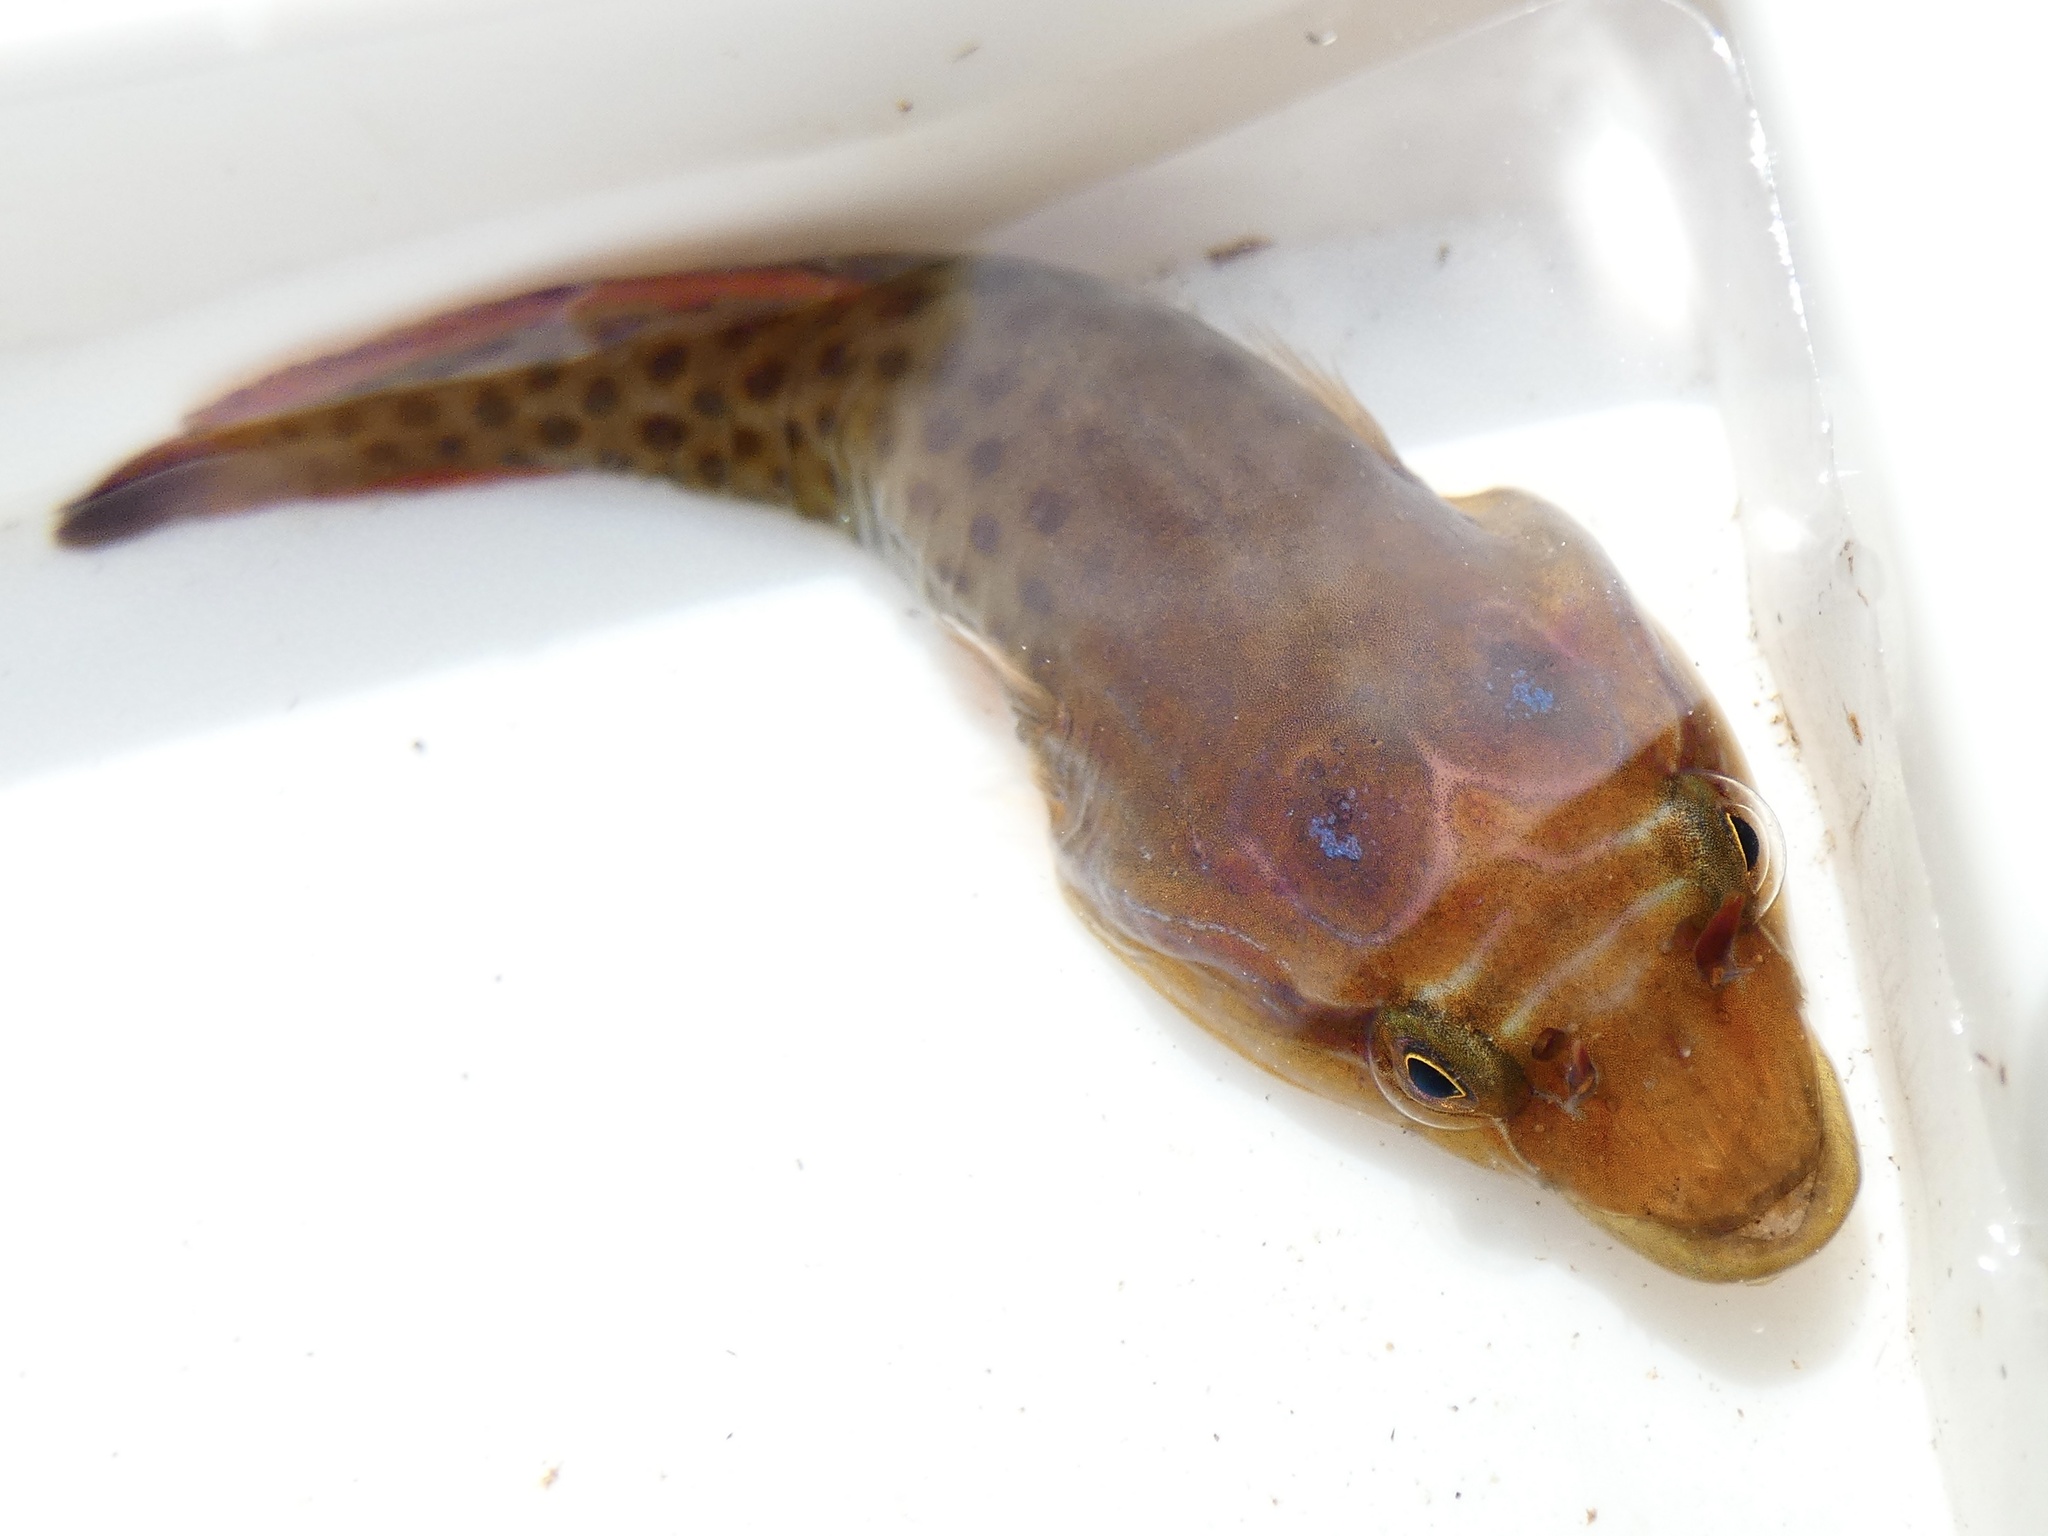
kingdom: Animalia
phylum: Chordata
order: Gobiesociformes
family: Gobiesocidae
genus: Lepadogaster
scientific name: Lepadogaster purpurea
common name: Cornish sucker
